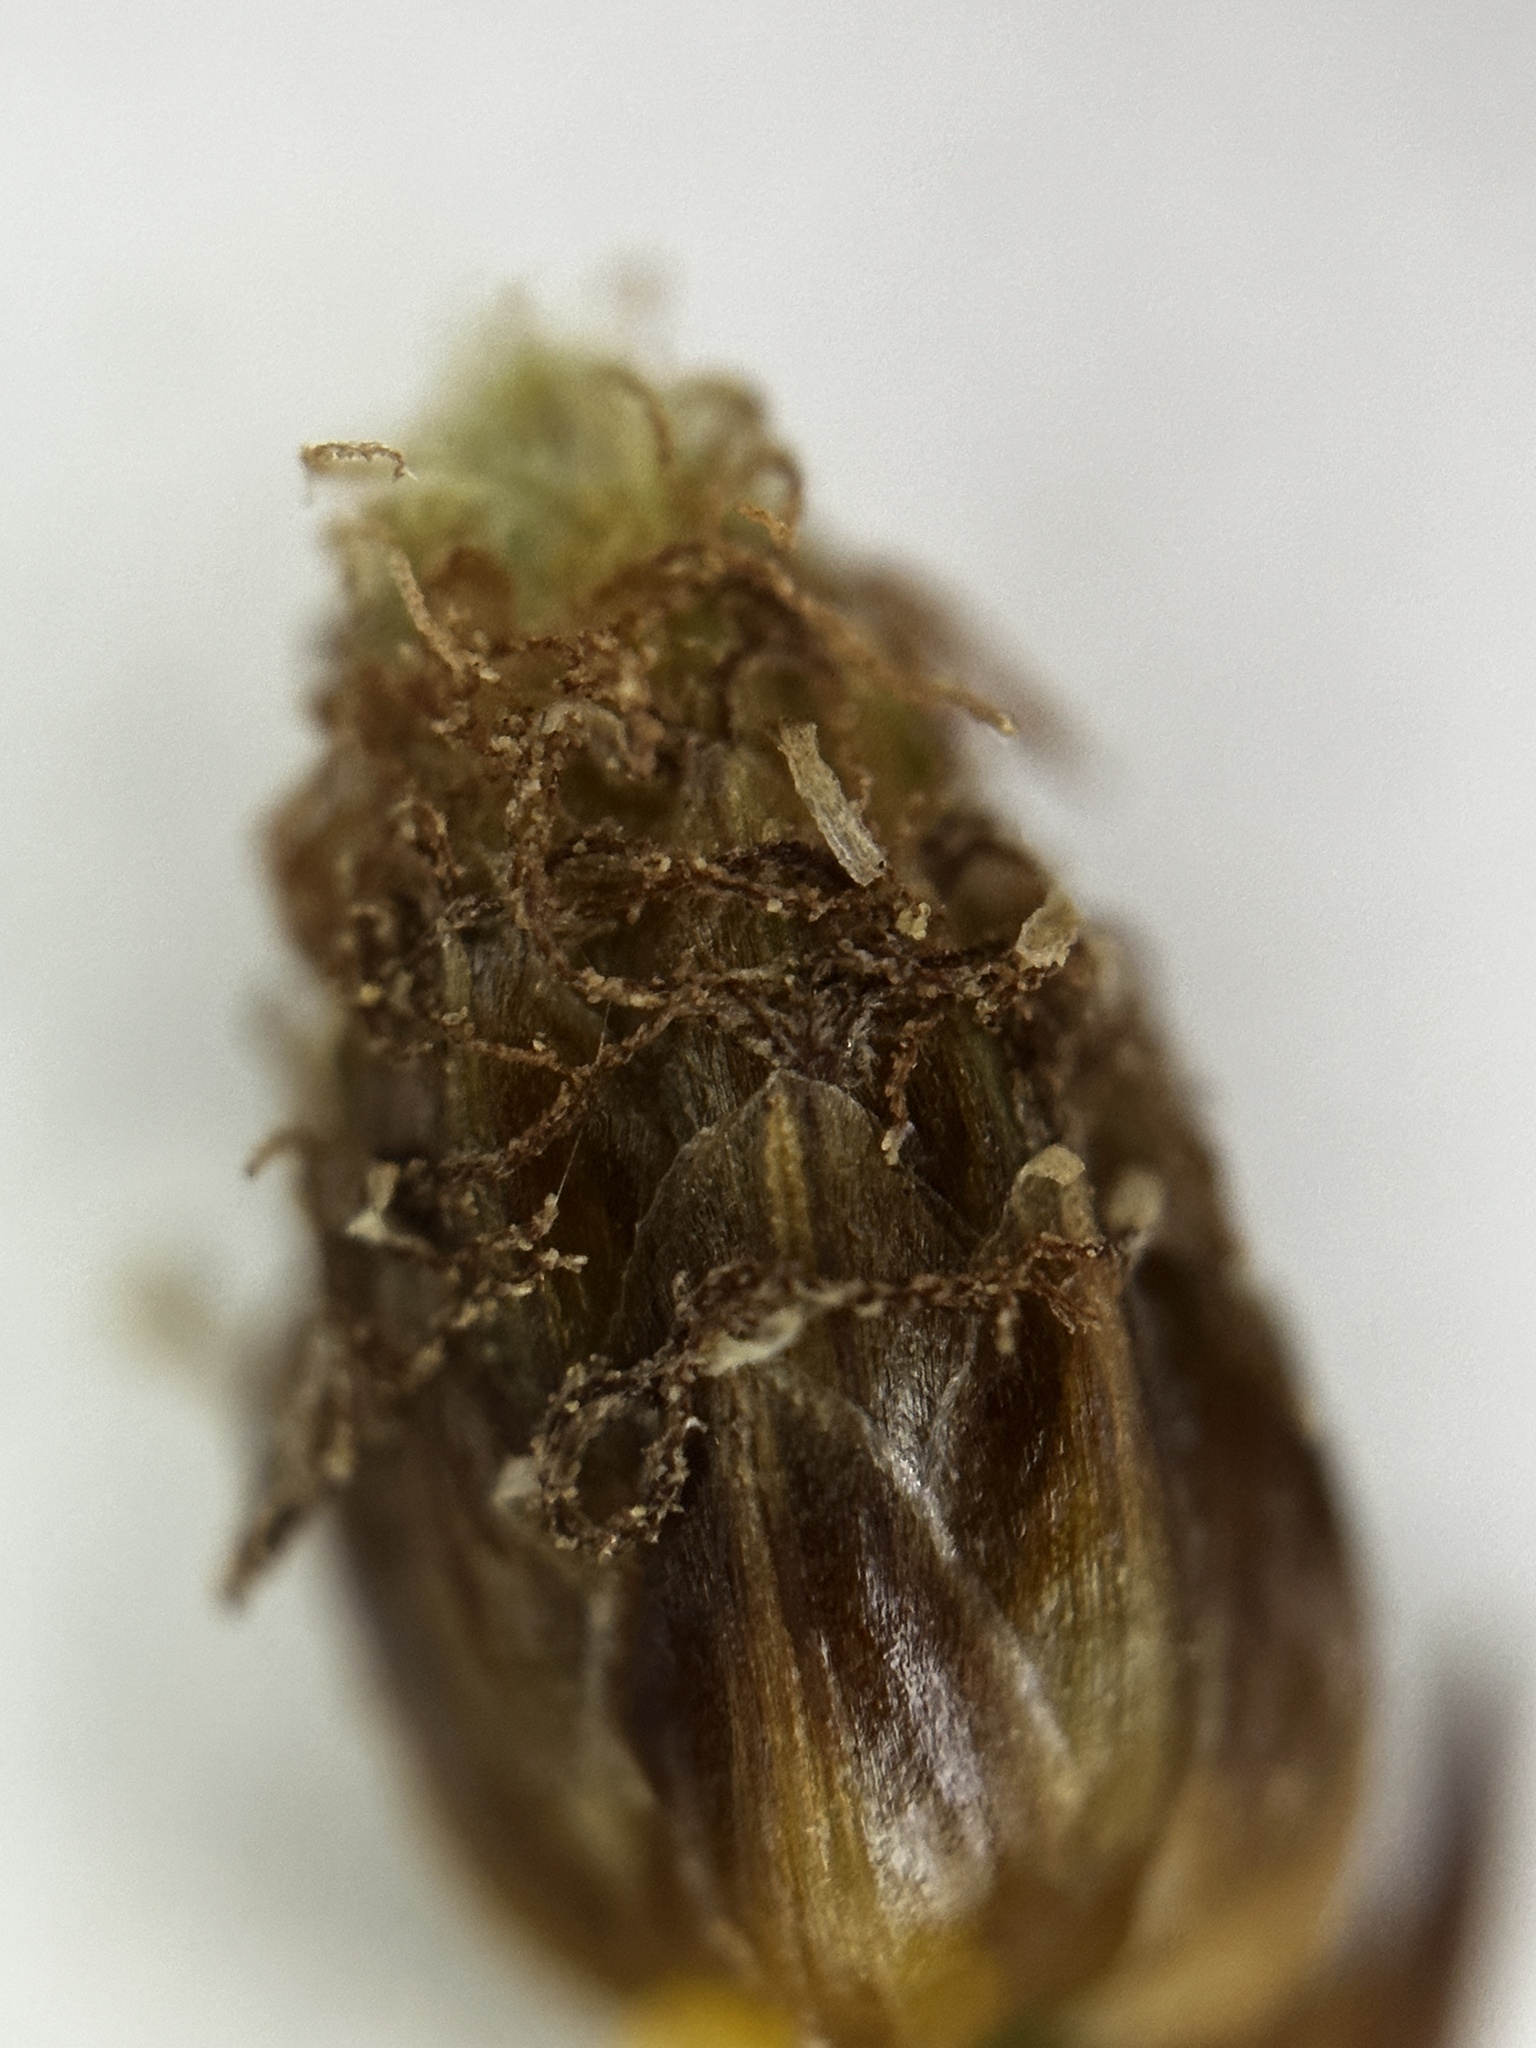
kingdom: Plantae
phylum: Tracheophyta
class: Liliopsida
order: Poales
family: Cyperaceae
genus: Fimbristylis
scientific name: Fimbristylis littoralis
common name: Fimbry
